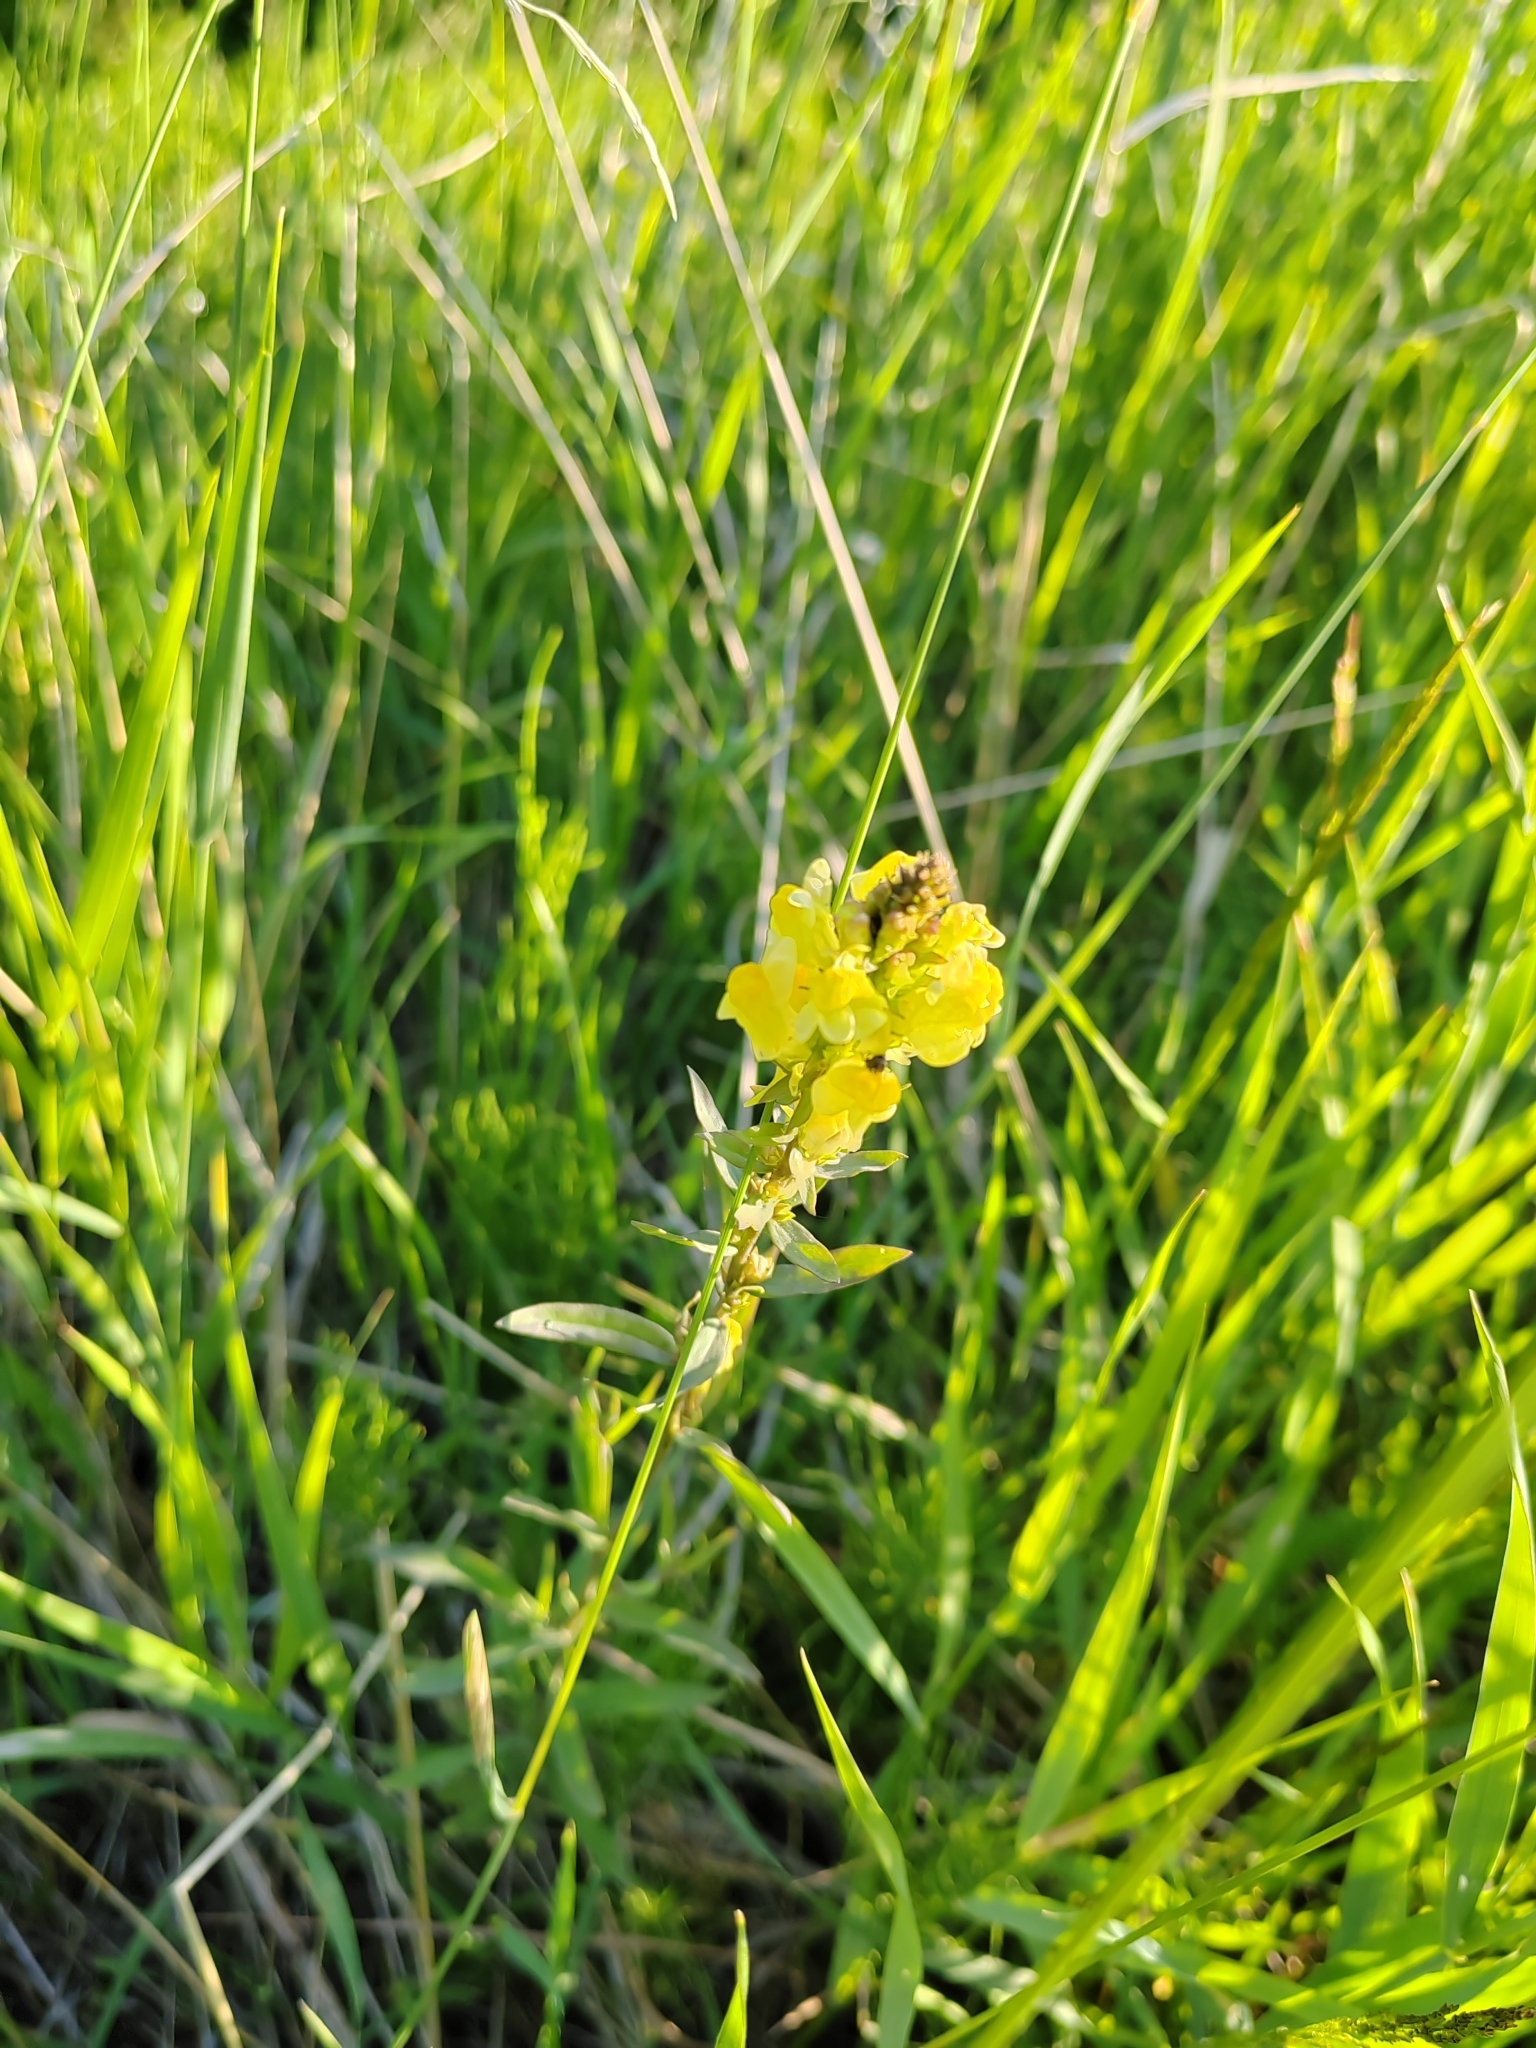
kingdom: Plantae
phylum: Tracheophyta
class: Magnoliopsida
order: Lamiales
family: Plantaginaceae
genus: Linaria
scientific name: Linaria vulgaris
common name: Butter and eggs
